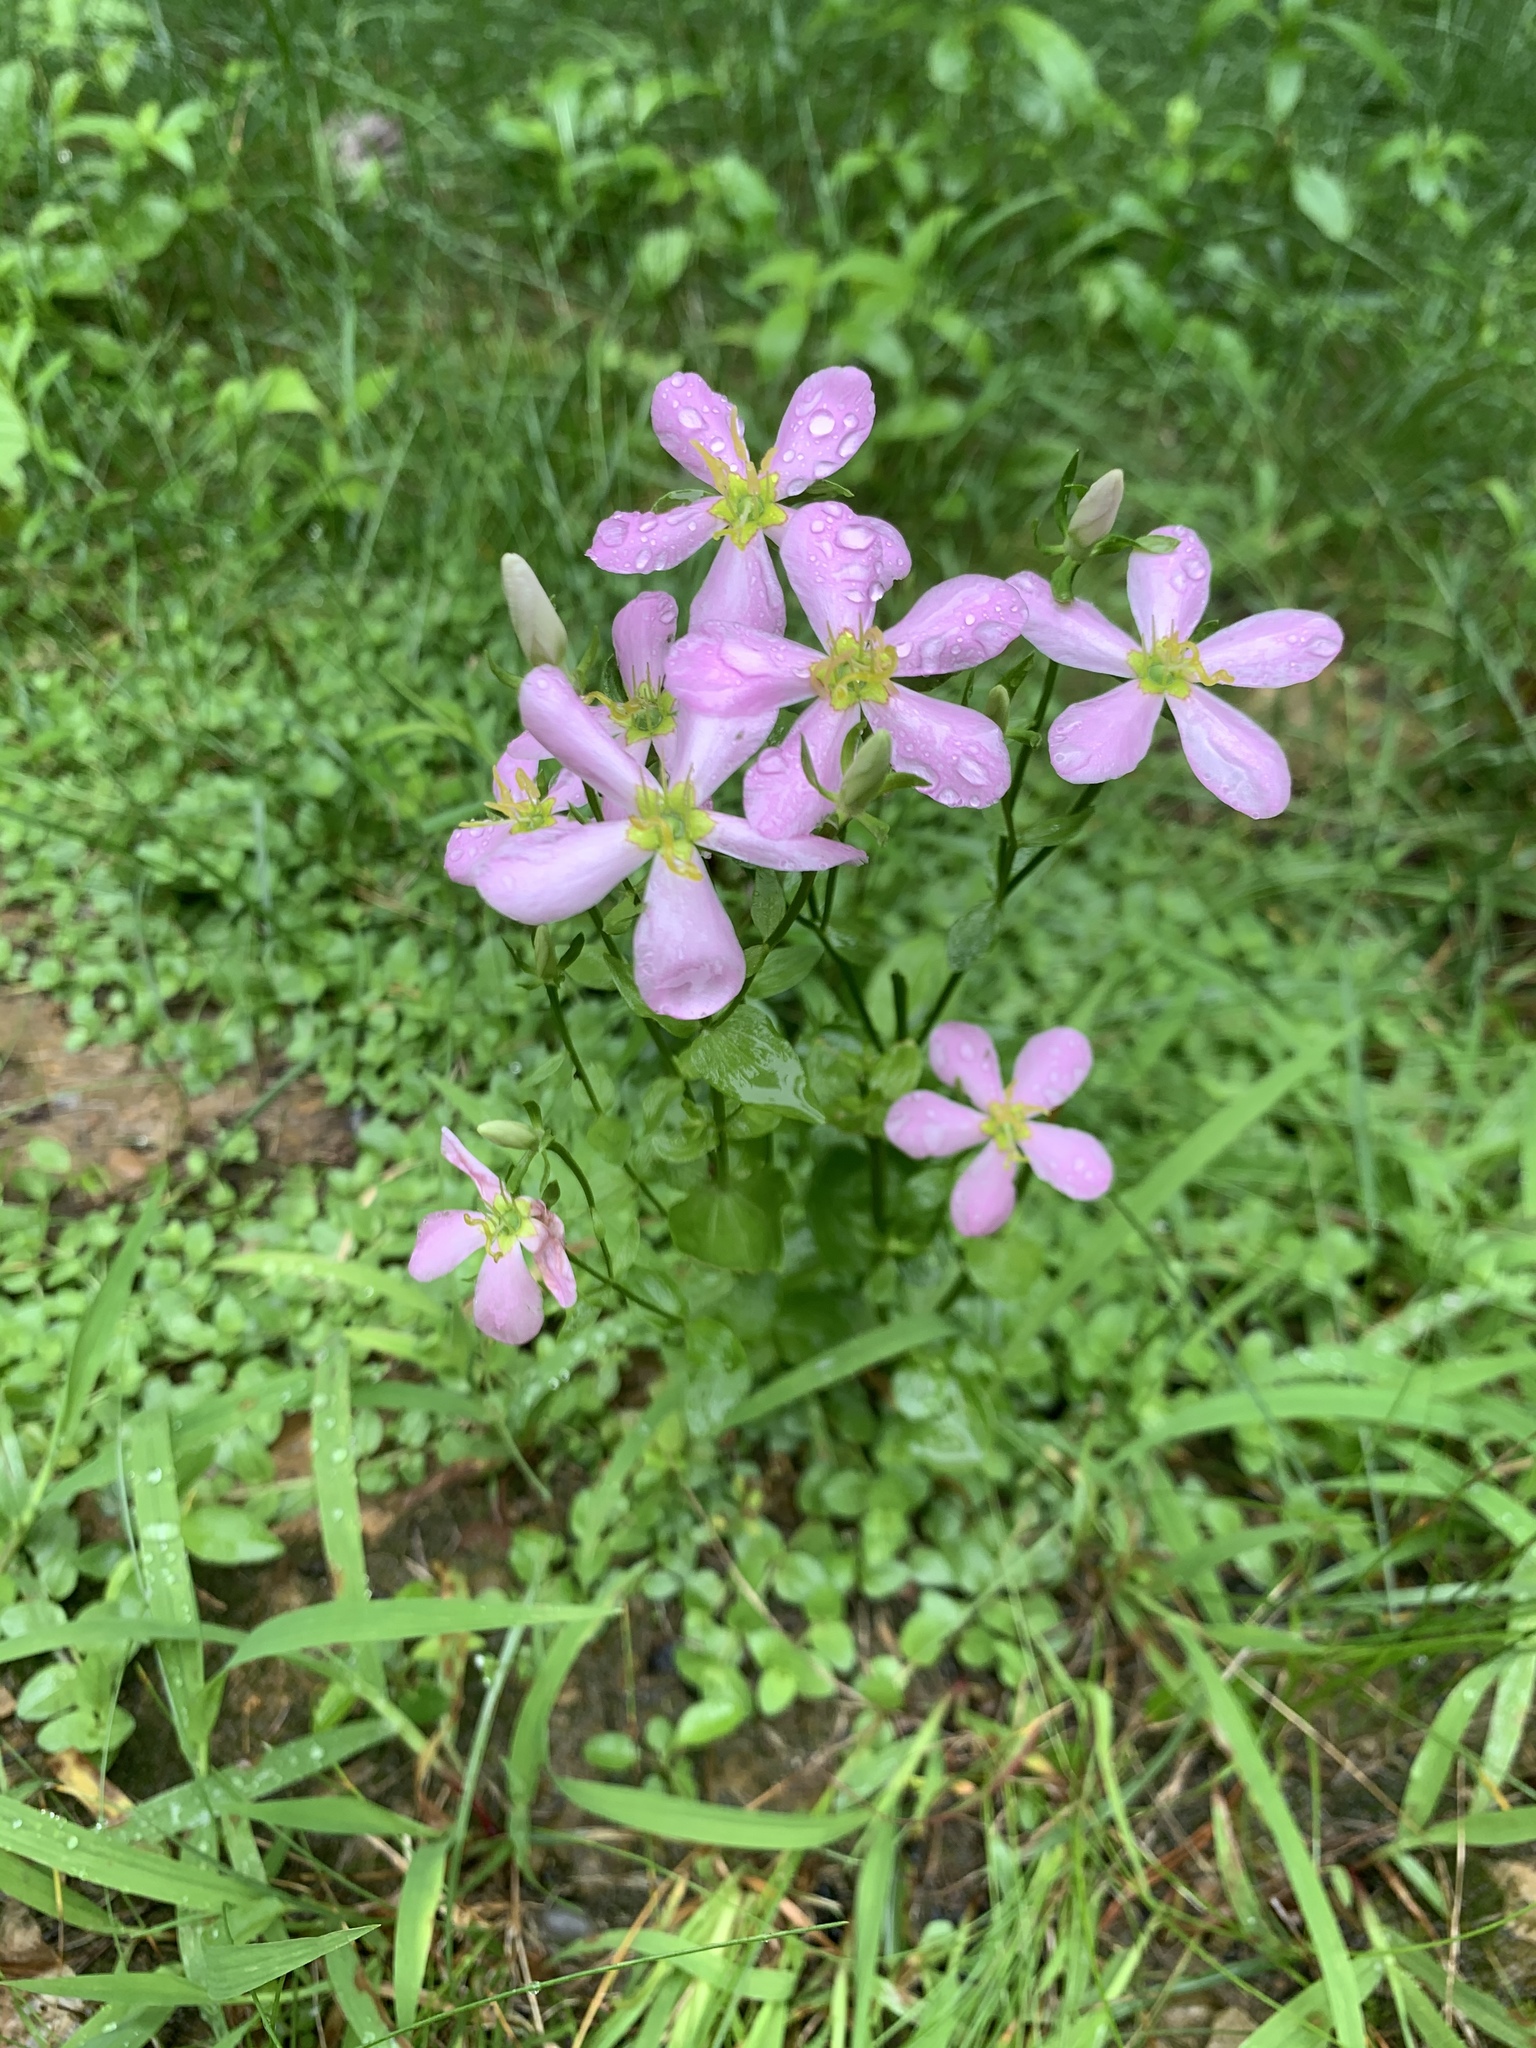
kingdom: Plantae
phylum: Tracheophyta
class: Magnoliopsida
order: Gentianales
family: Gentianaceae
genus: Sabatia
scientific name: Sabatia angularis
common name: Rose-pink
